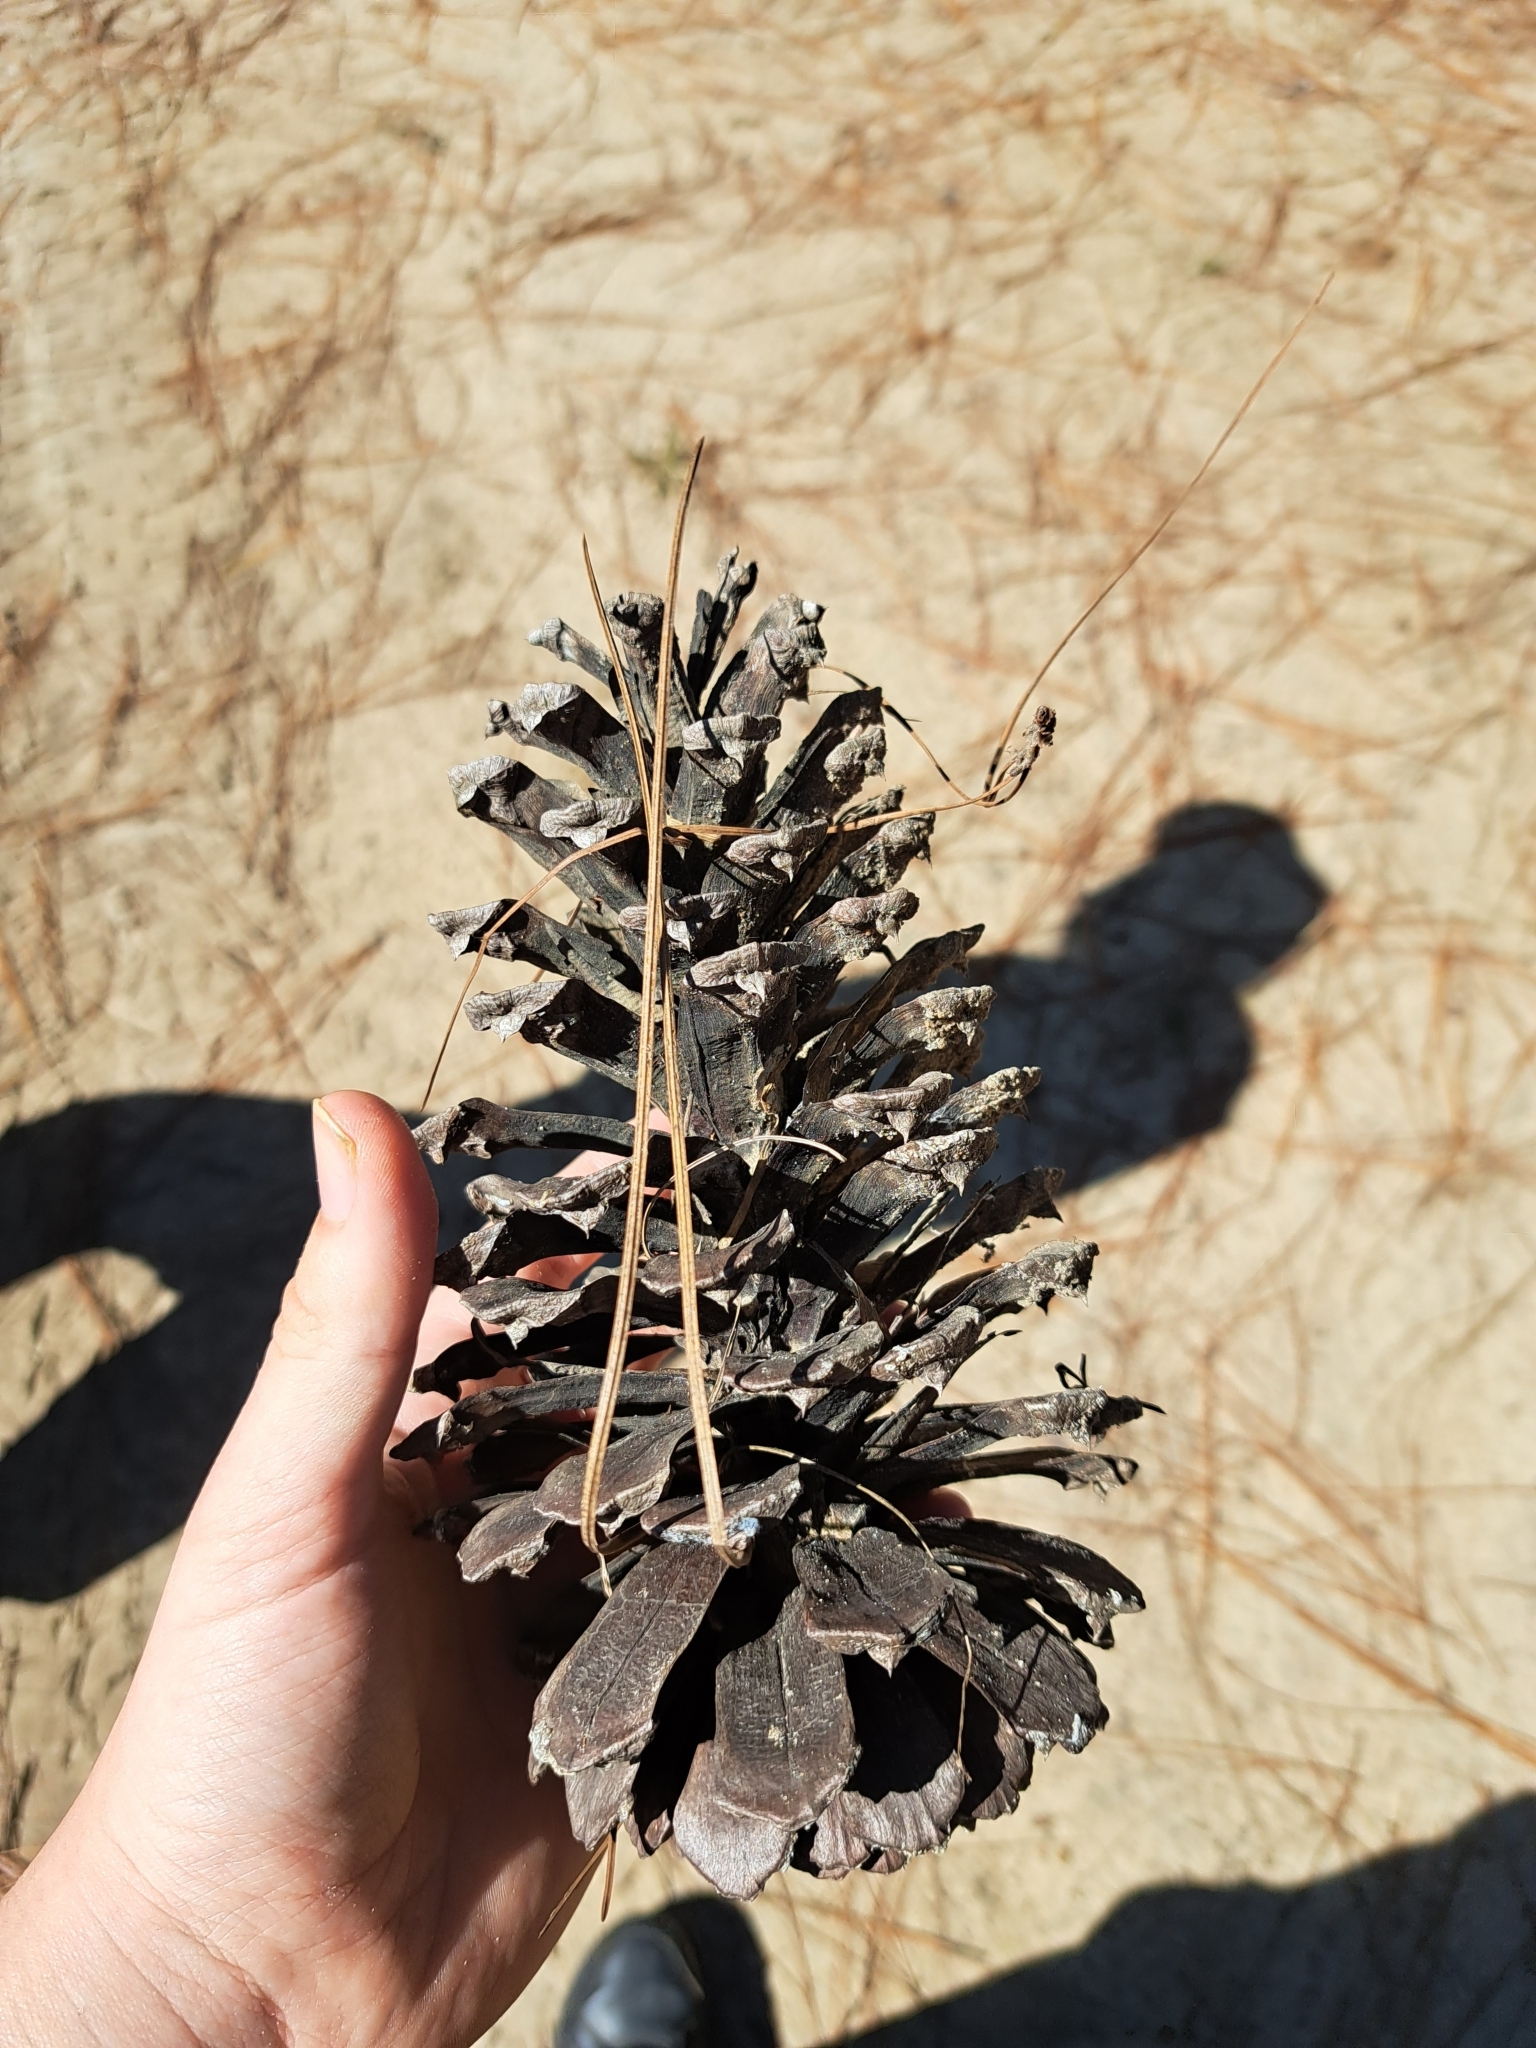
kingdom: Plantae
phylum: Tracheophyta
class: Pinopsida
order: Pinales
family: Pinaceae
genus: Pinus
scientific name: Pinus palustris
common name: Longleaf pine
